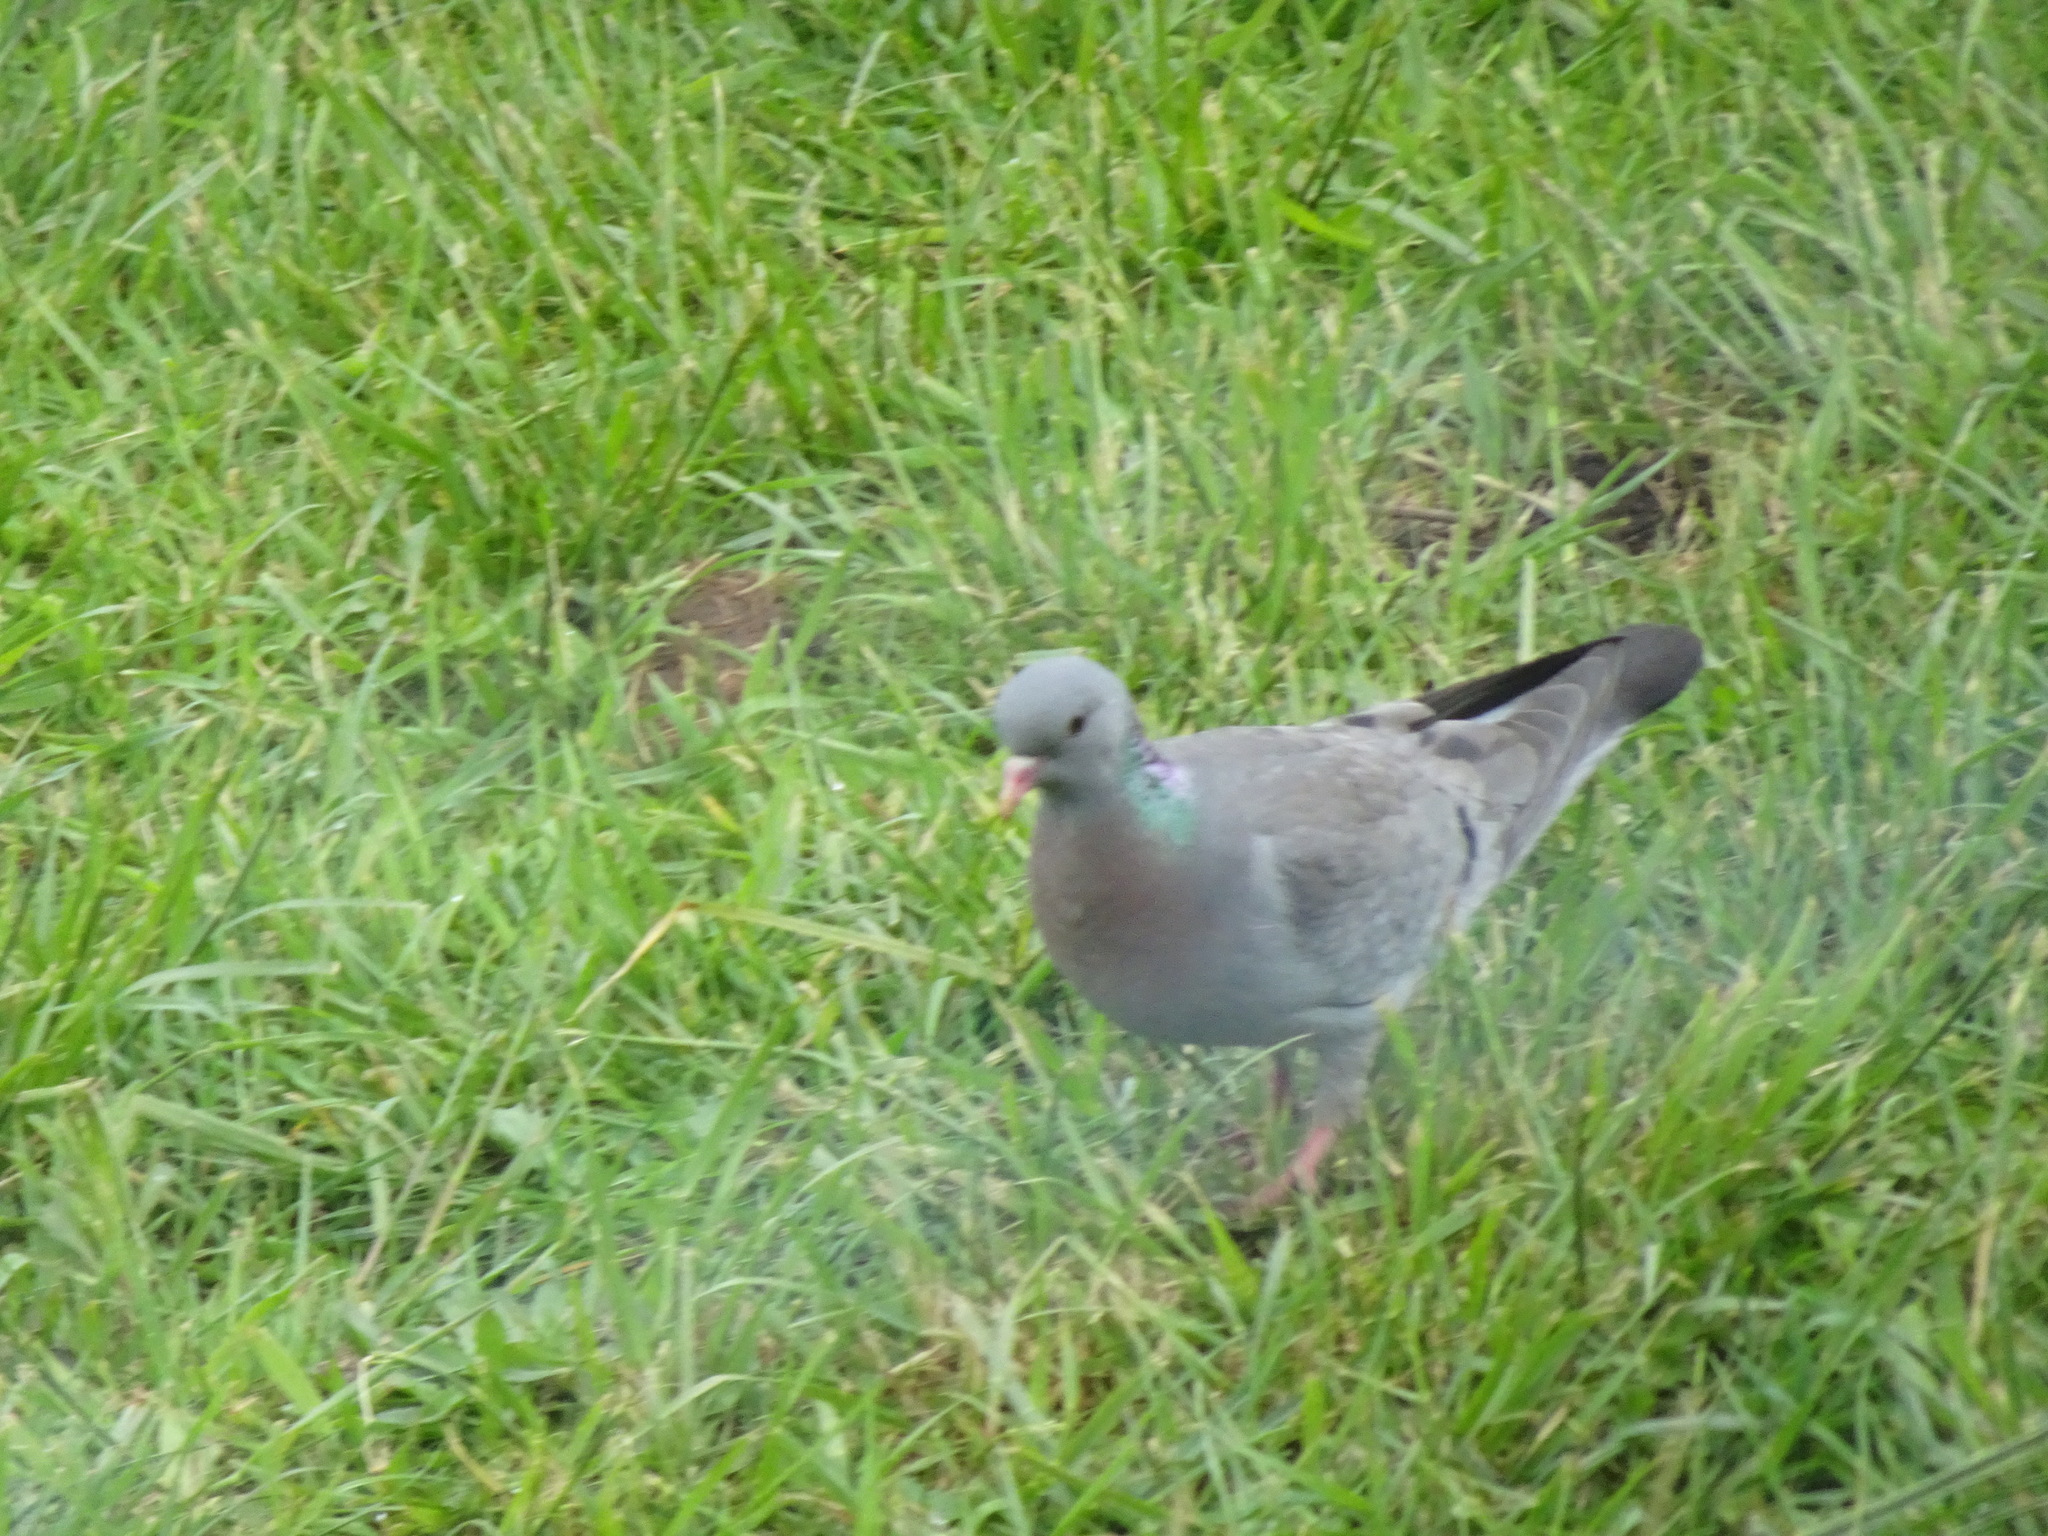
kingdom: Animalia
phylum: Chordata
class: Aves
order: Columbiformes
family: Columbidae
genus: Columba
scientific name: Columba oenas
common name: Stock dove
